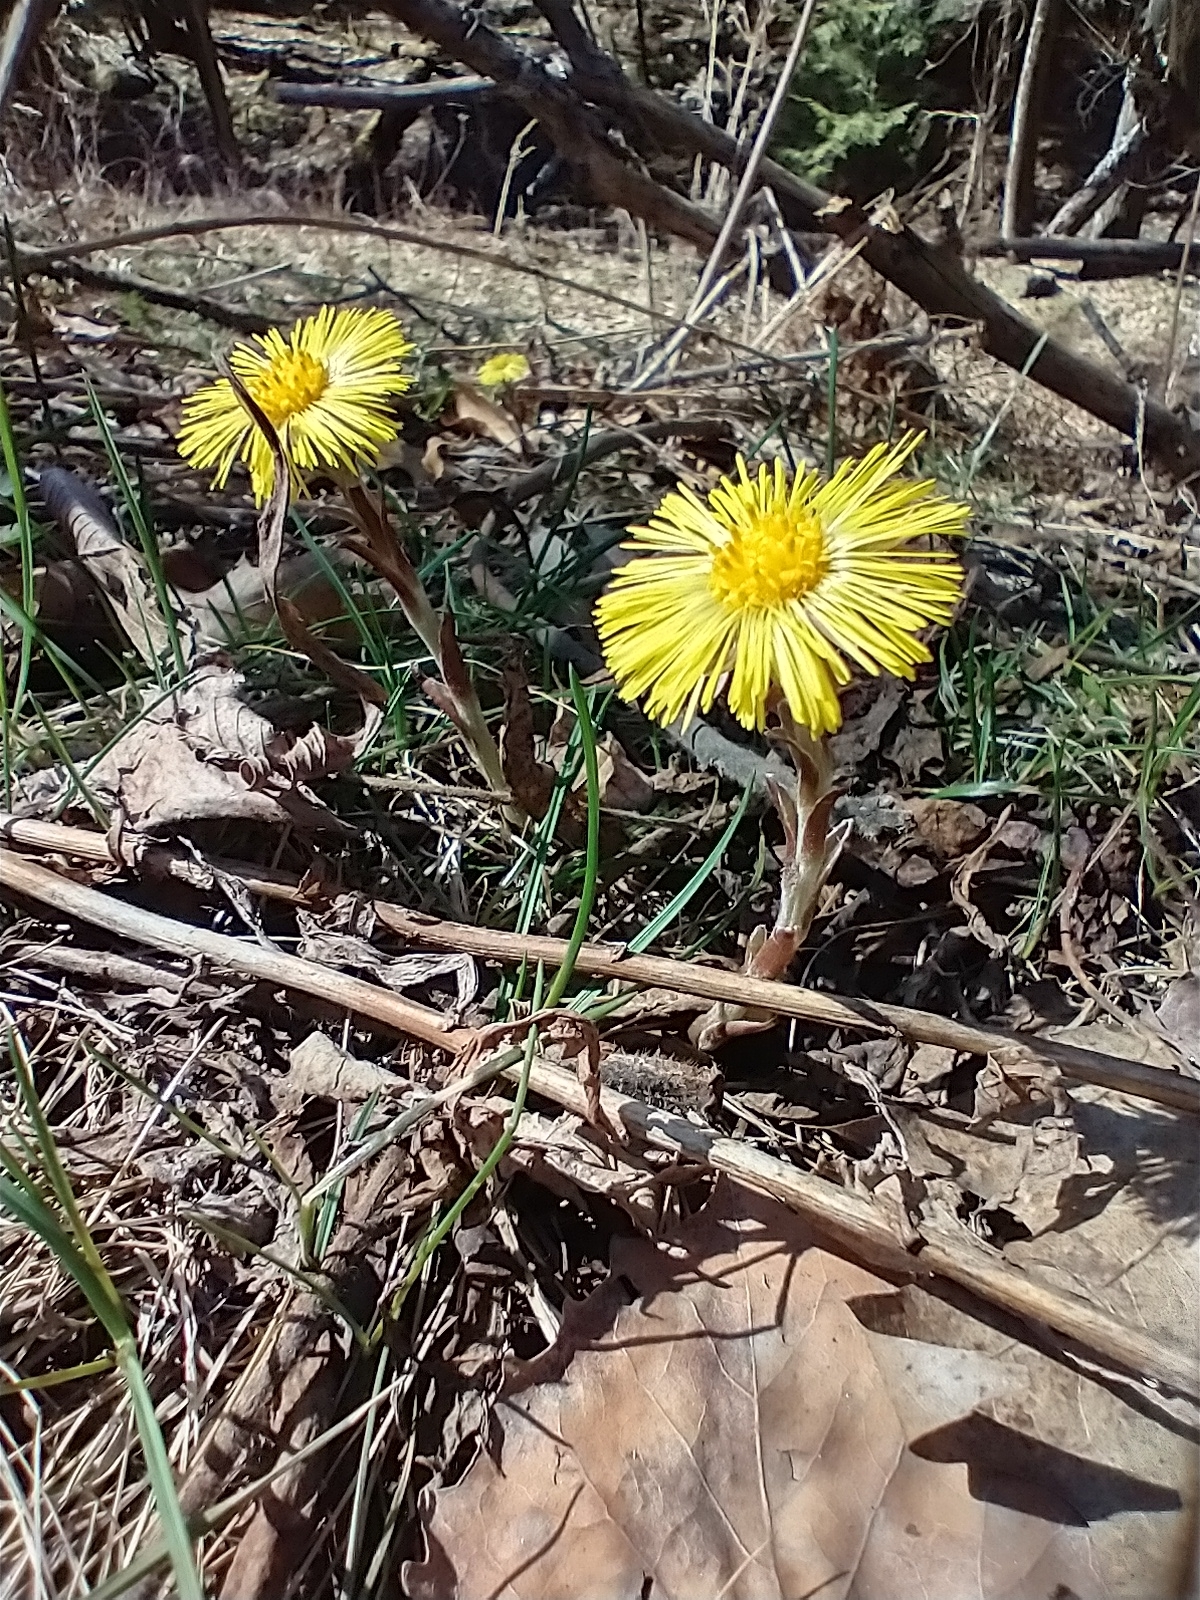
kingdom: Plantae
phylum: Tracheophyta
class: Magnoliopsida
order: Asterales
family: Asteraceae
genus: Tussilago
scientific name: Tussilago farfara
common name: Coltsfoot
